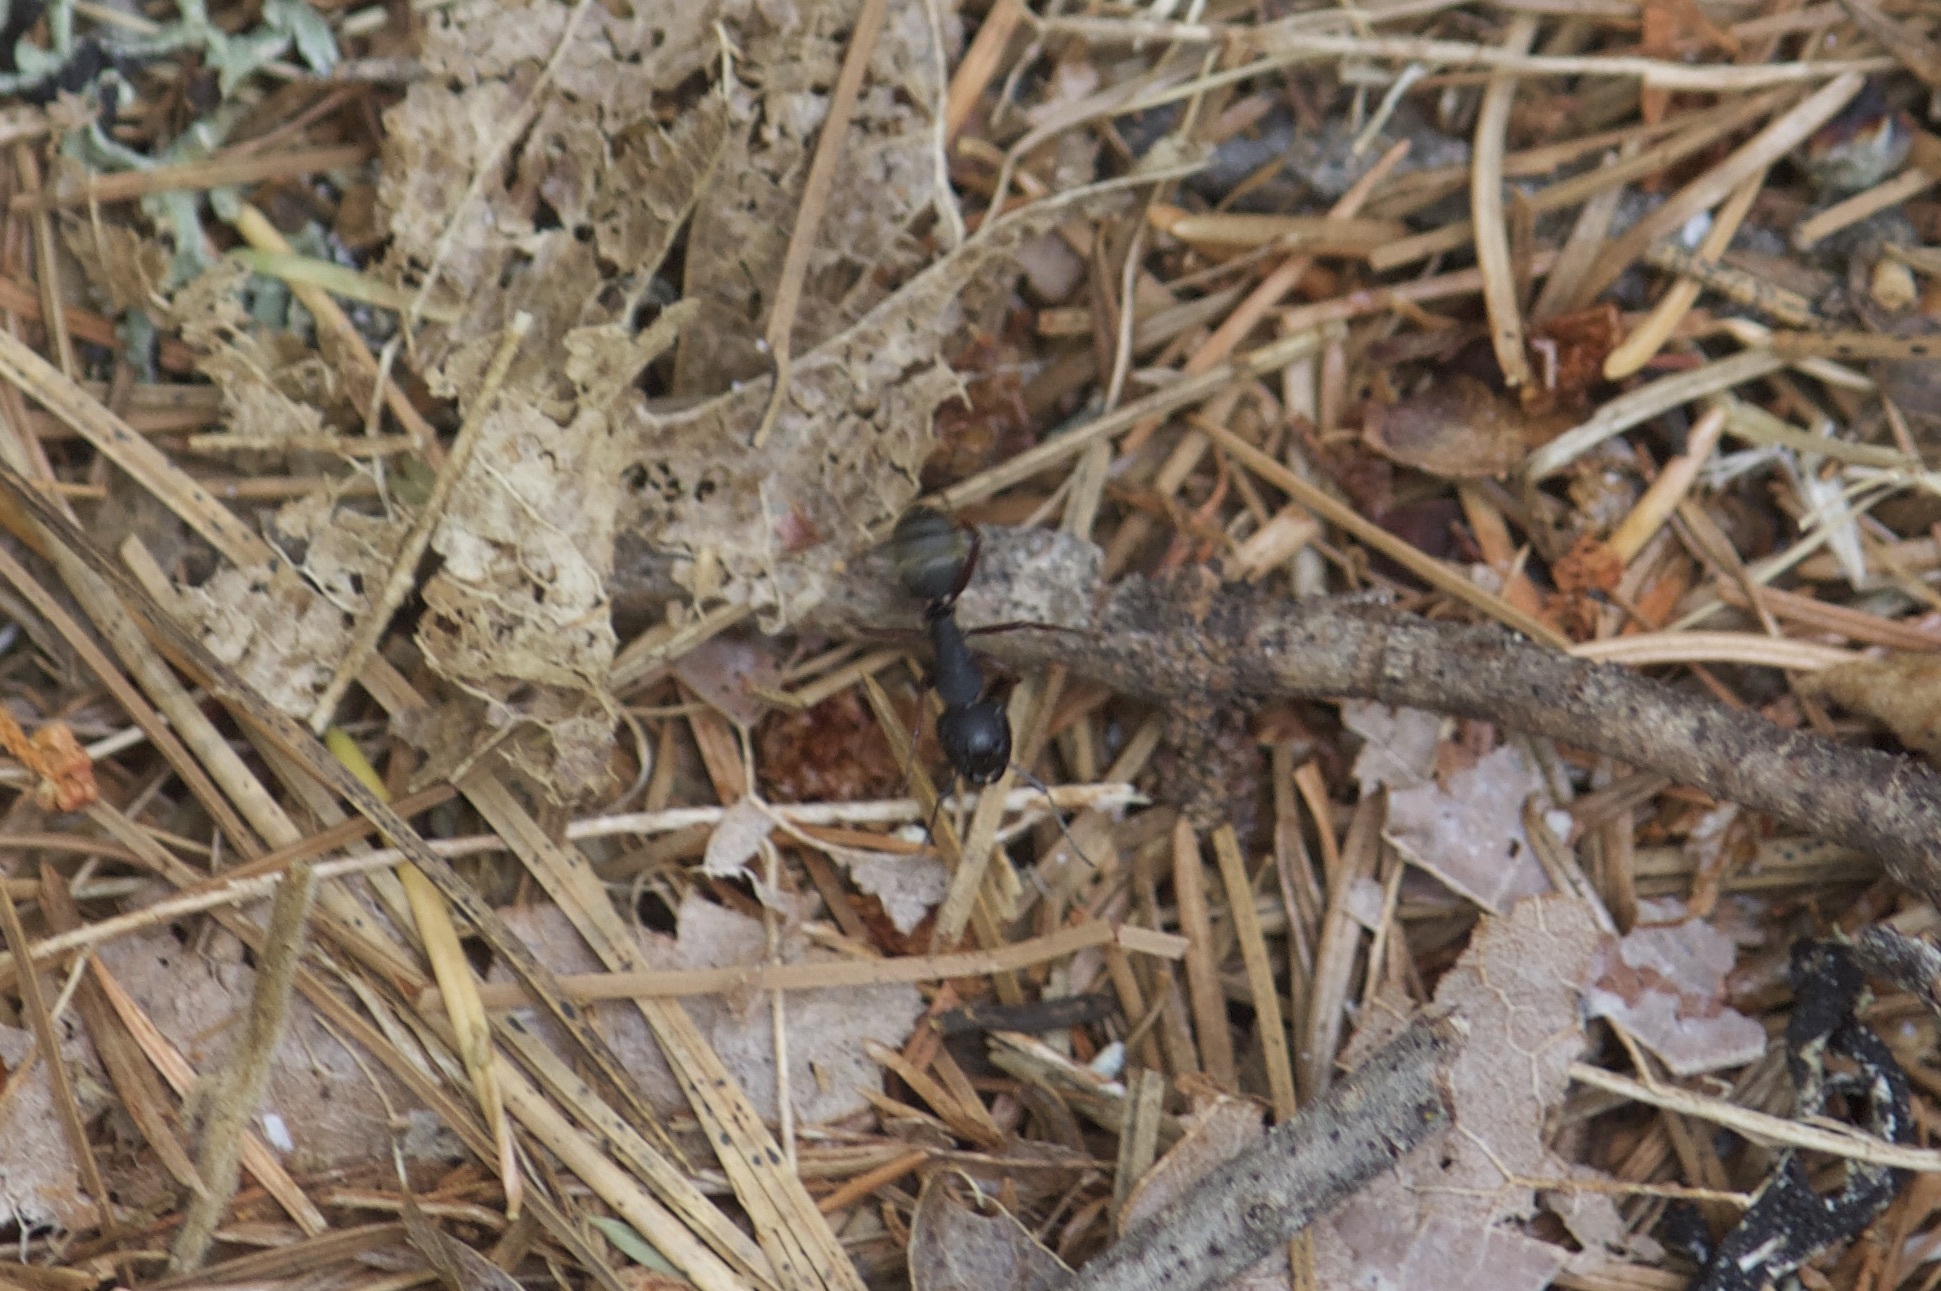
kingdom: Animalia
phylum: Arthropoda
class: Insecta
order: Hymenoptera
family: Formicidae
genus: Camponotus
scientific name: Camponotus modoc
